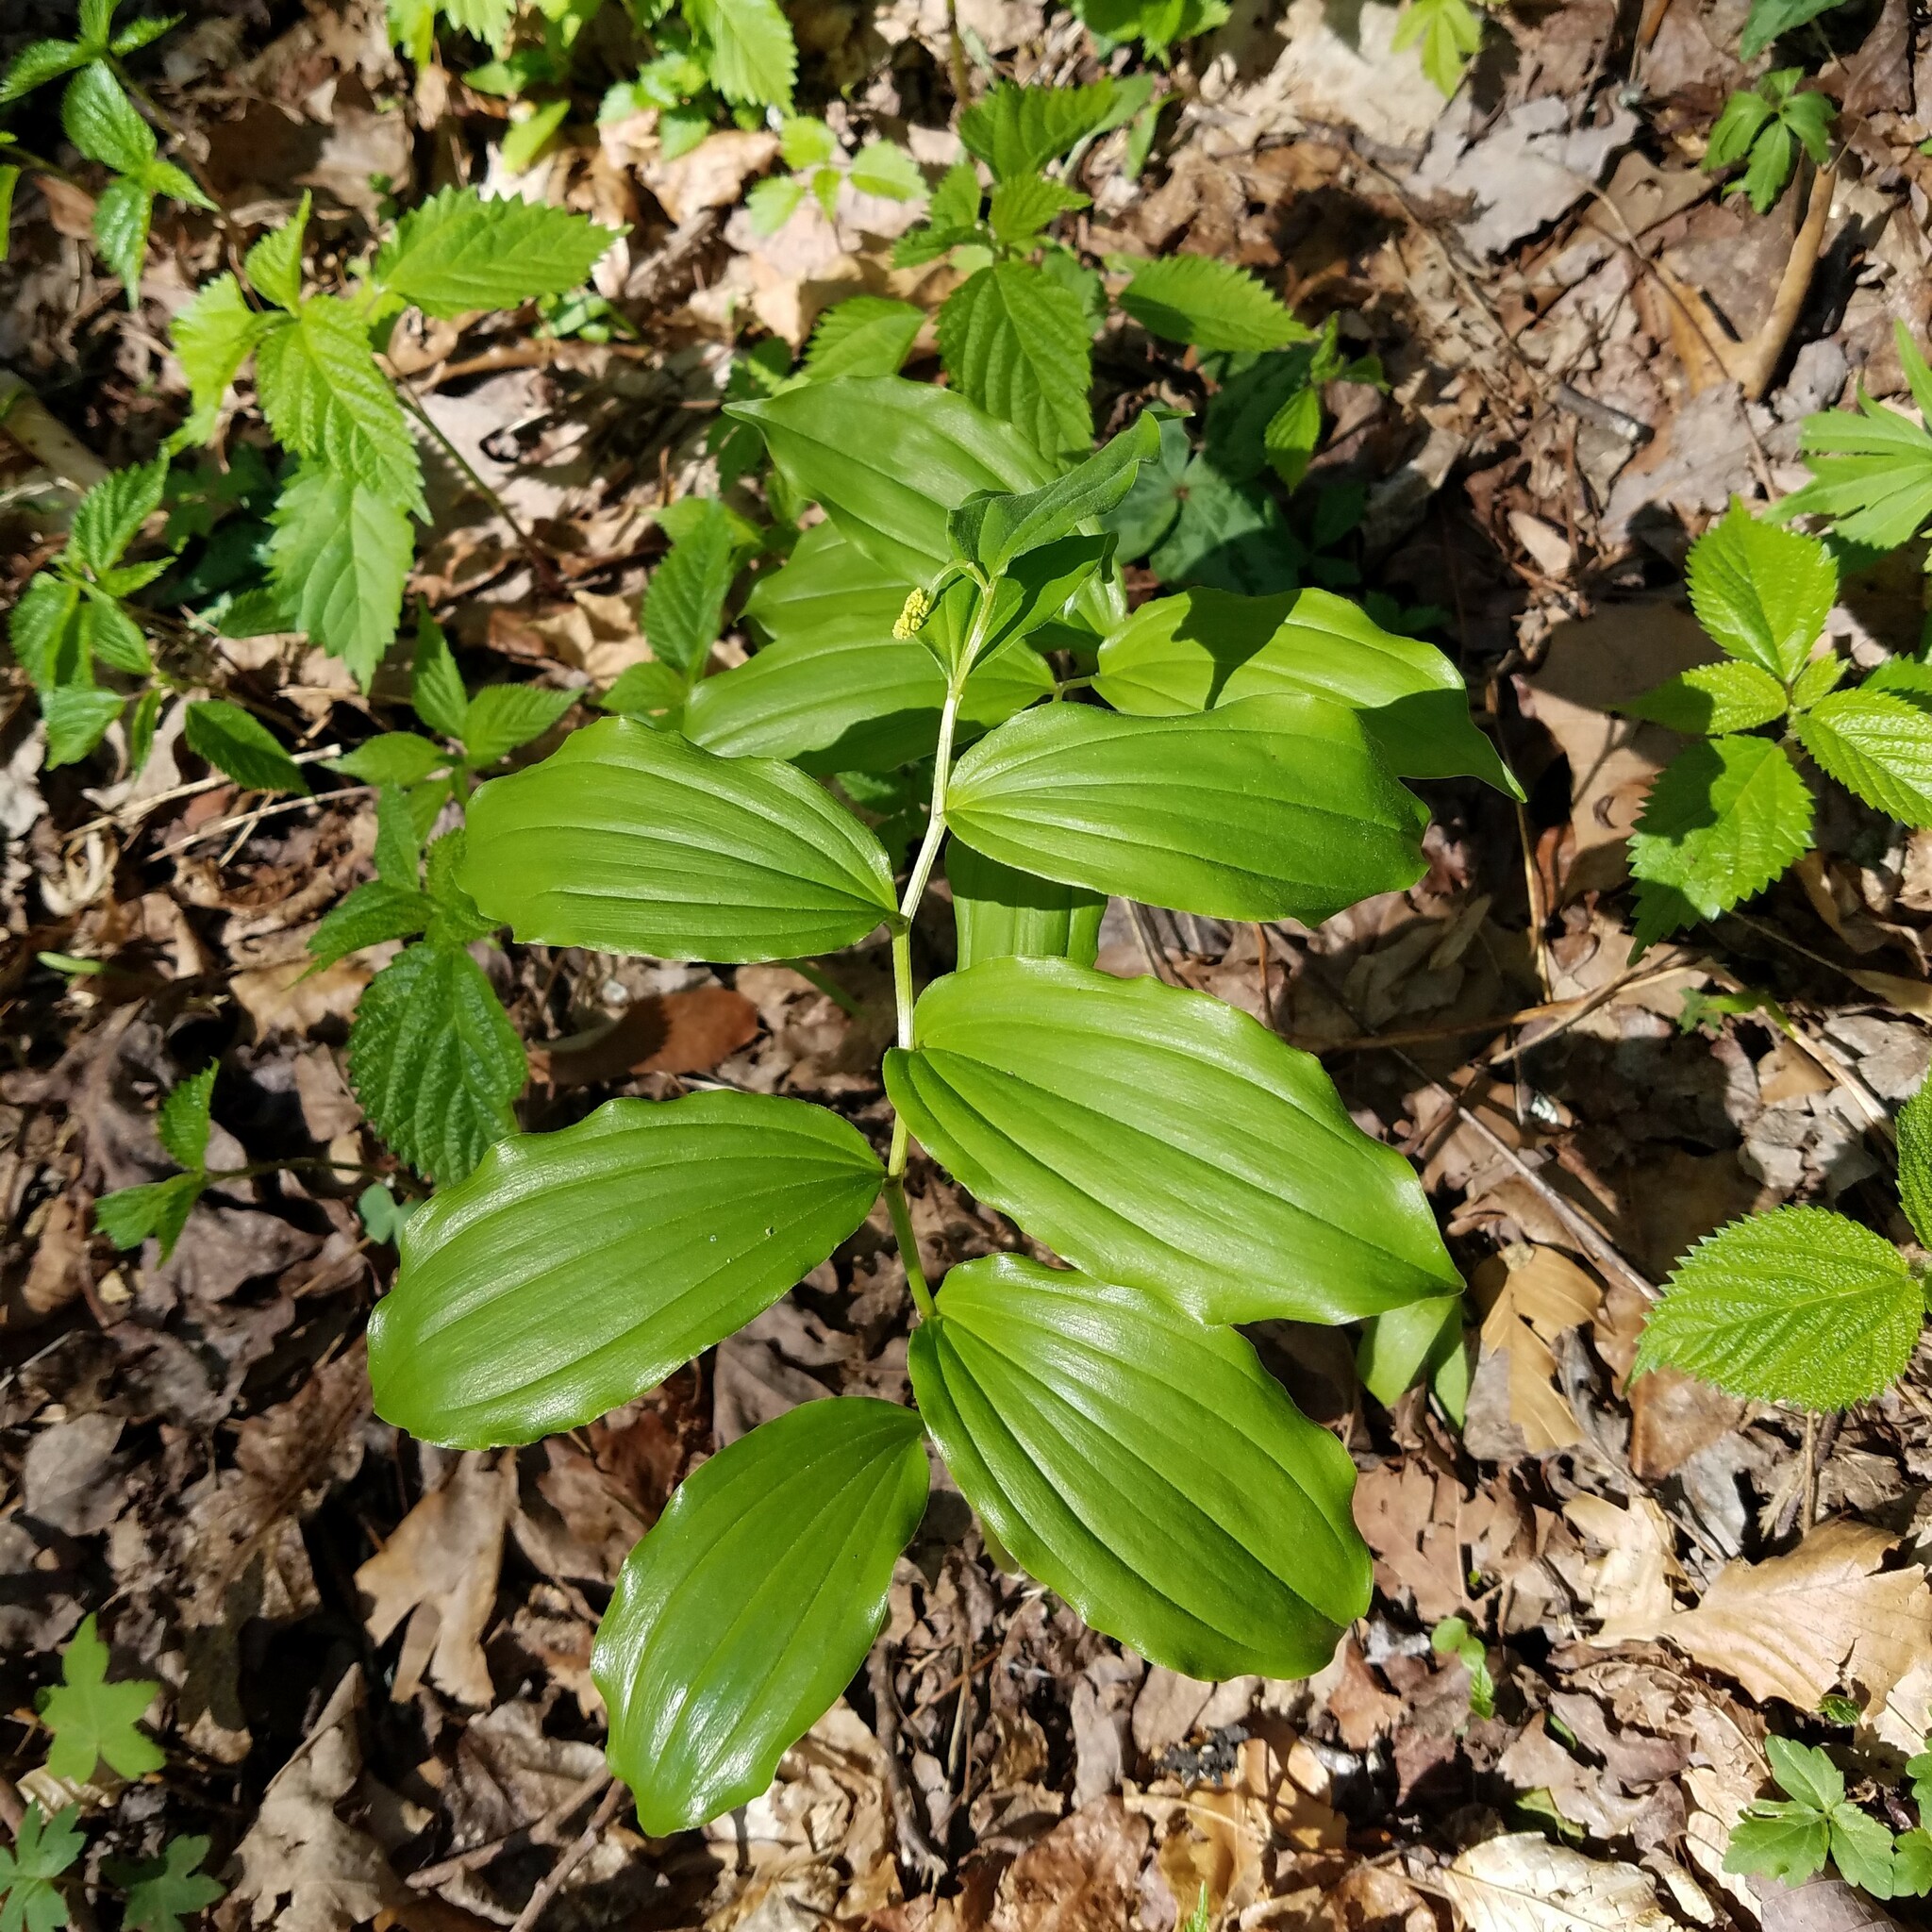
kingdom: Plantae
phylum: Tracheophyta
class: Liliopsida
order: Asparagales
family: Asparagaceae
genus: Maianthemum
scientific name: Maianthemum racemosum
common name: False spikenard
